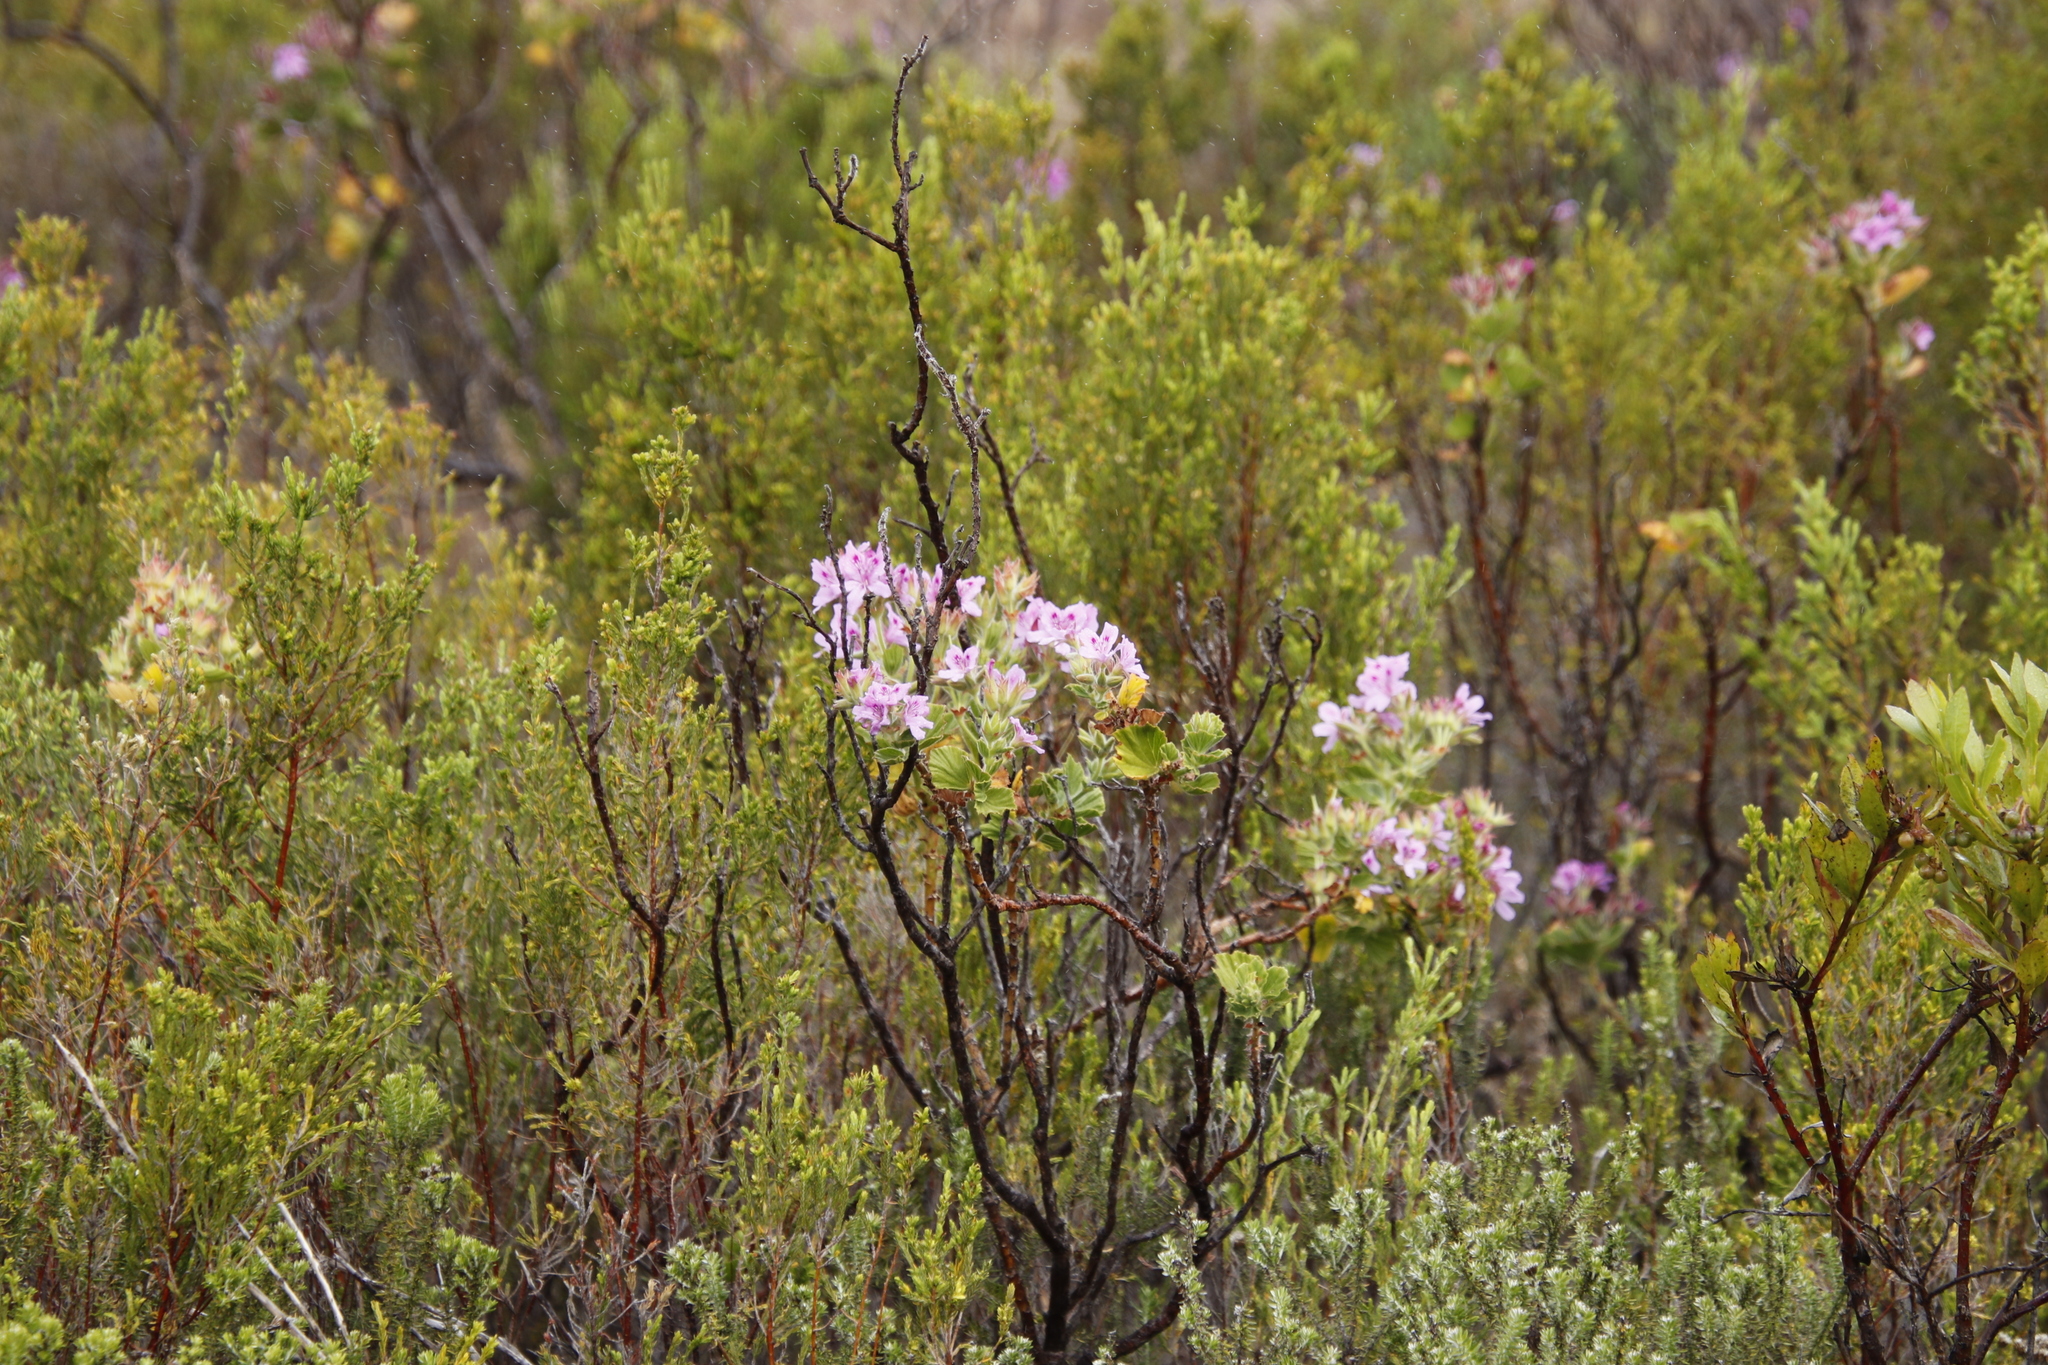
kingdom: Plantae
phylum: Tracheophyta
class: Magnoliopsida
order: Geraniales
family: Geraniaceae
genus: Pelargonium
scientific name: Pelargonium cucullatum
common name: Tree pelargonium
